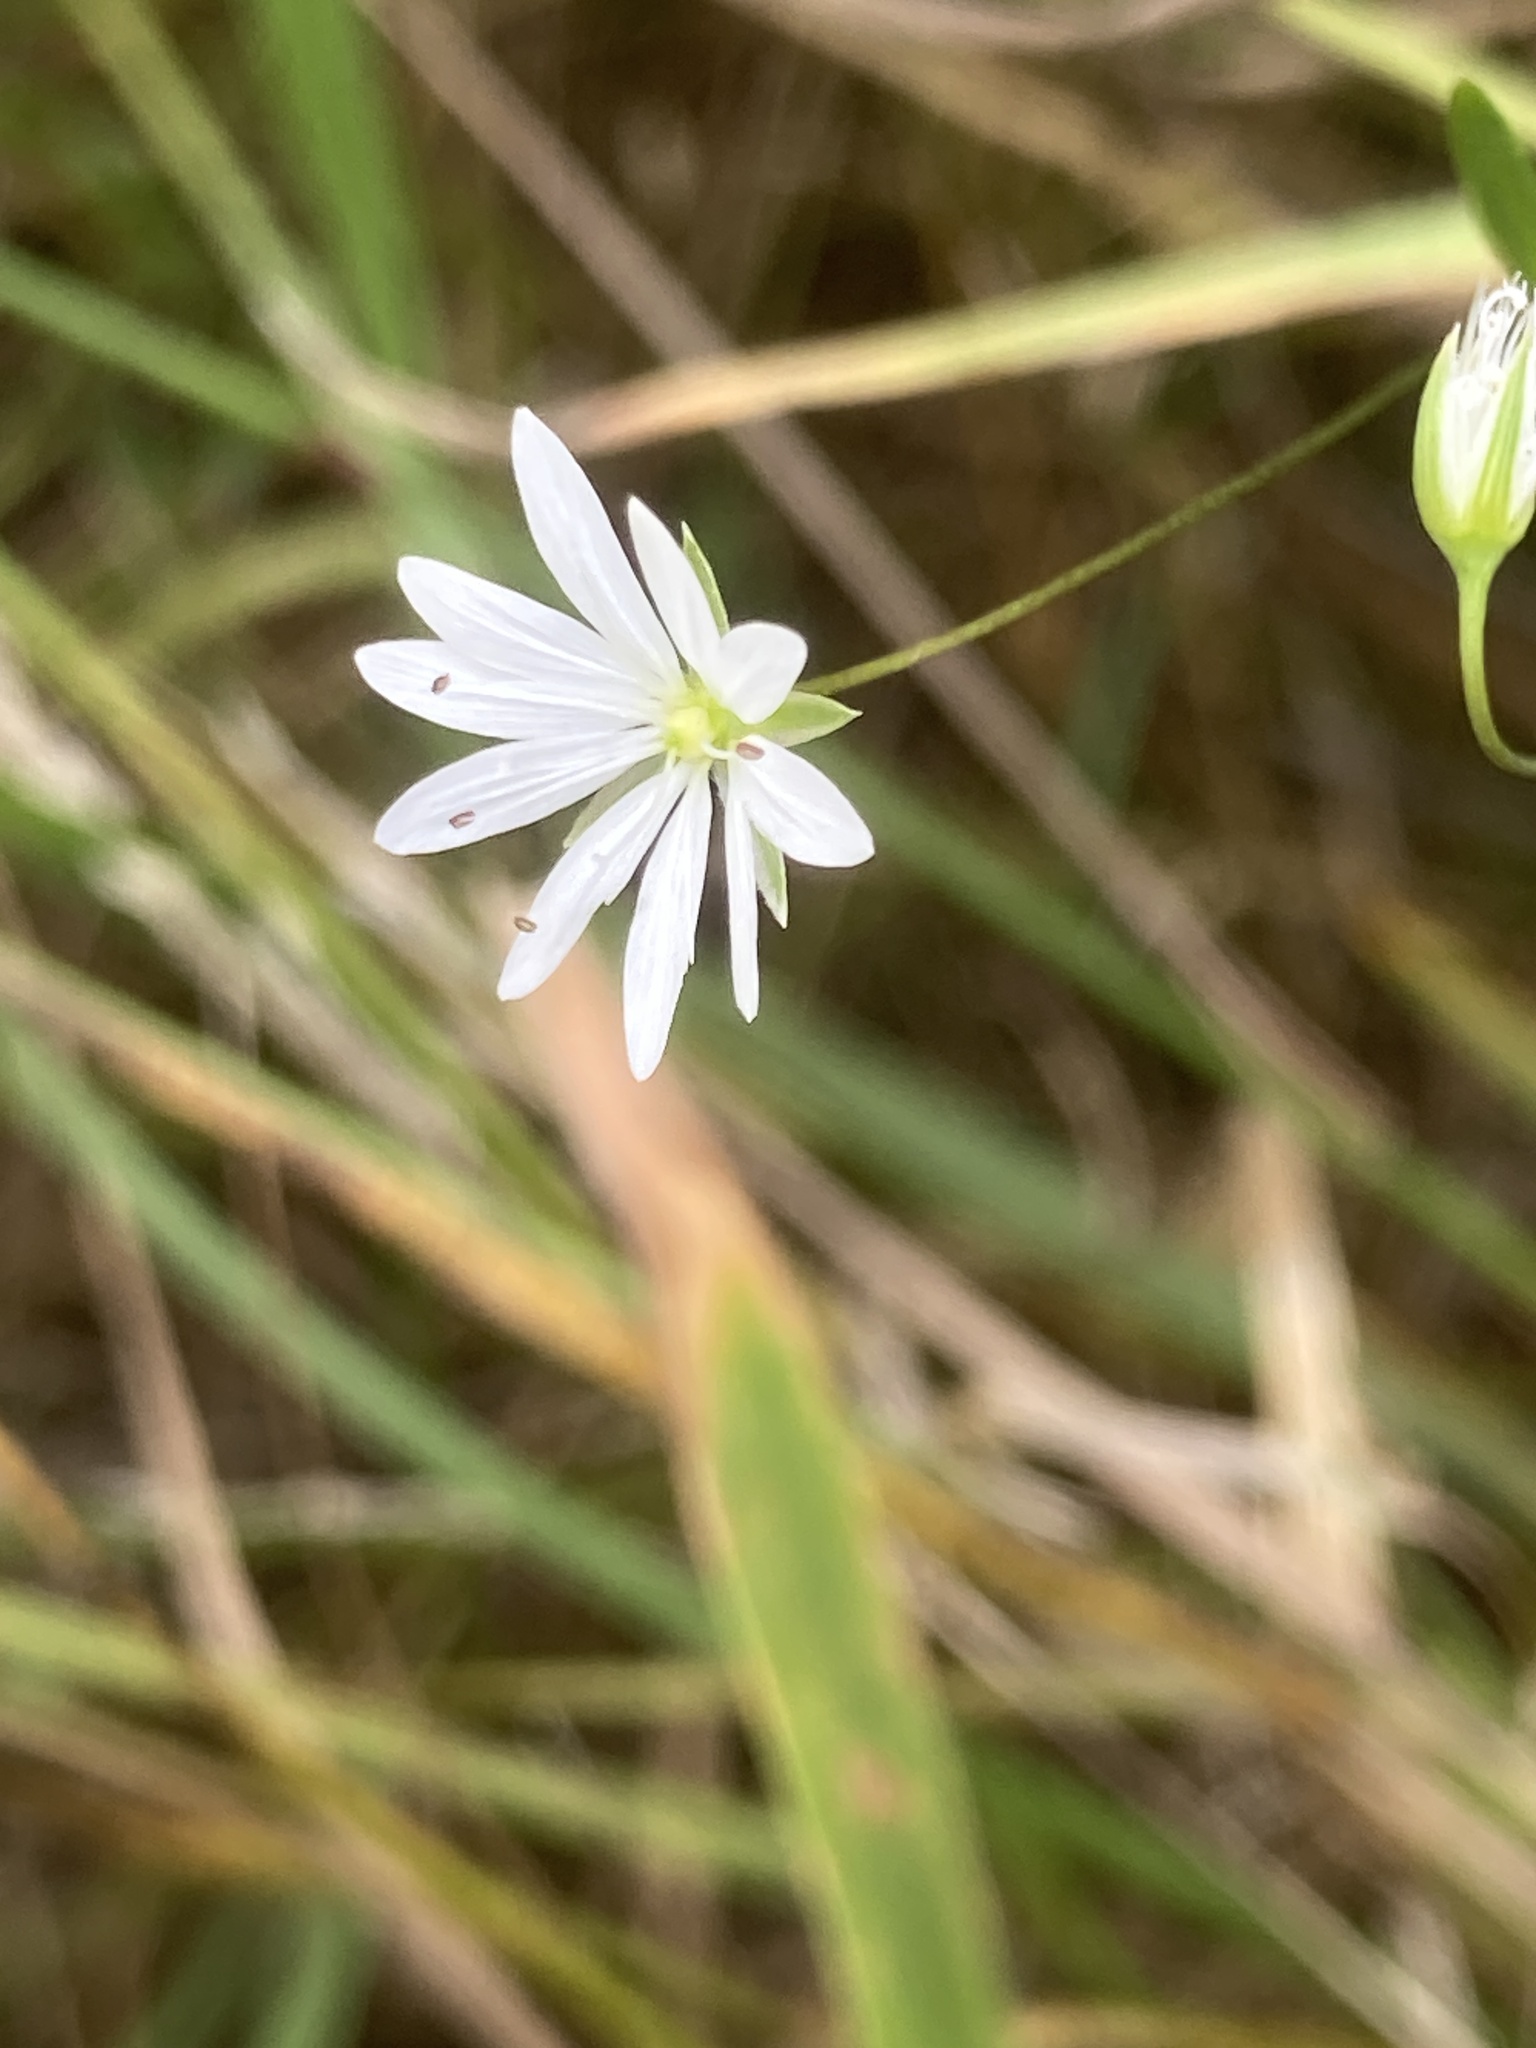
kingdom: Plantae
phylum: Tracheophyta
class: Magnoliopsida
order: Caryophyllales
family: Caryophyllaceae
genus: Stellaria
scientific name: Stellaria graminea
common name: Grass-like starwort
